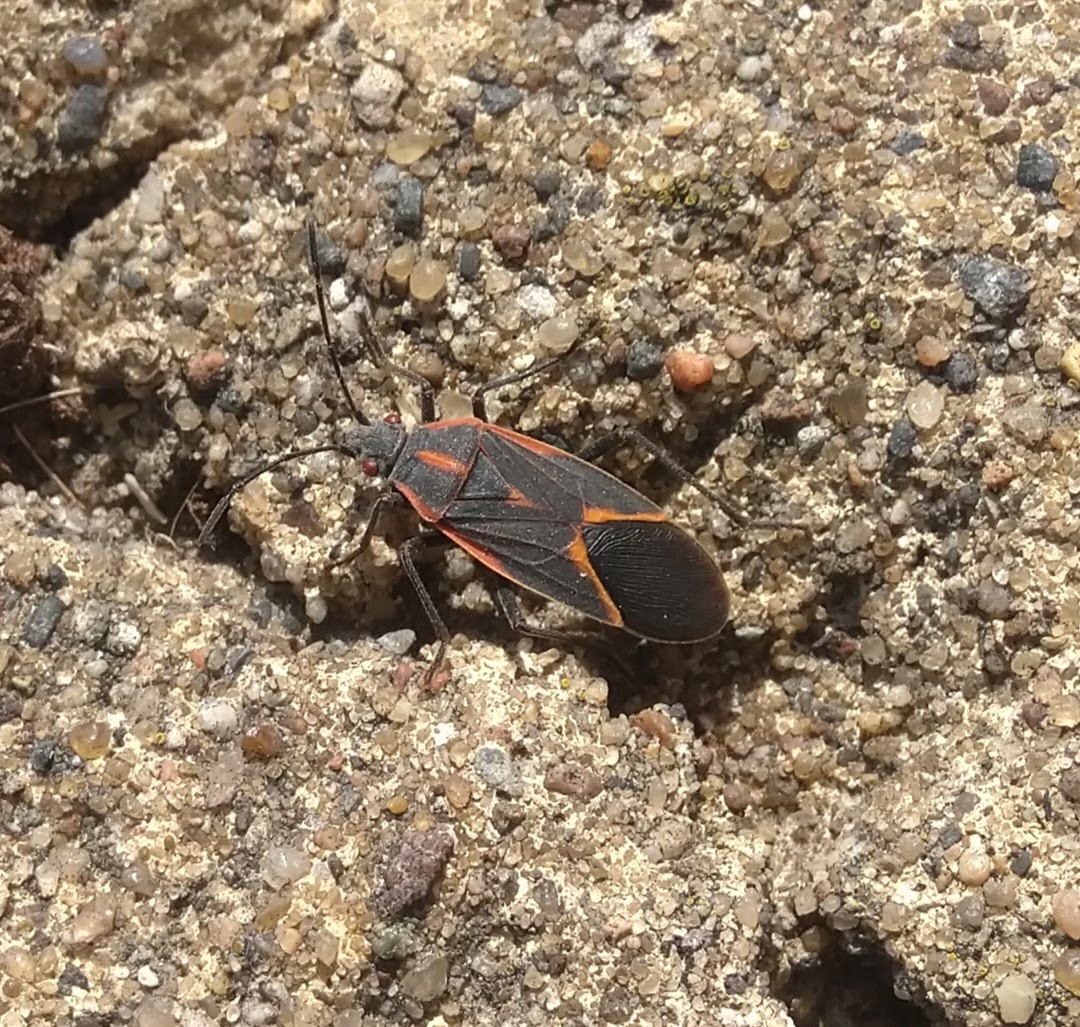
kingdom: Animalia
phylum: Arthropoda
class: Insecta
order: Hemiptera
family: Rhopalidae
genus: Boisea
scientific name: Boisea trivittata
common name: Boxelder bug
